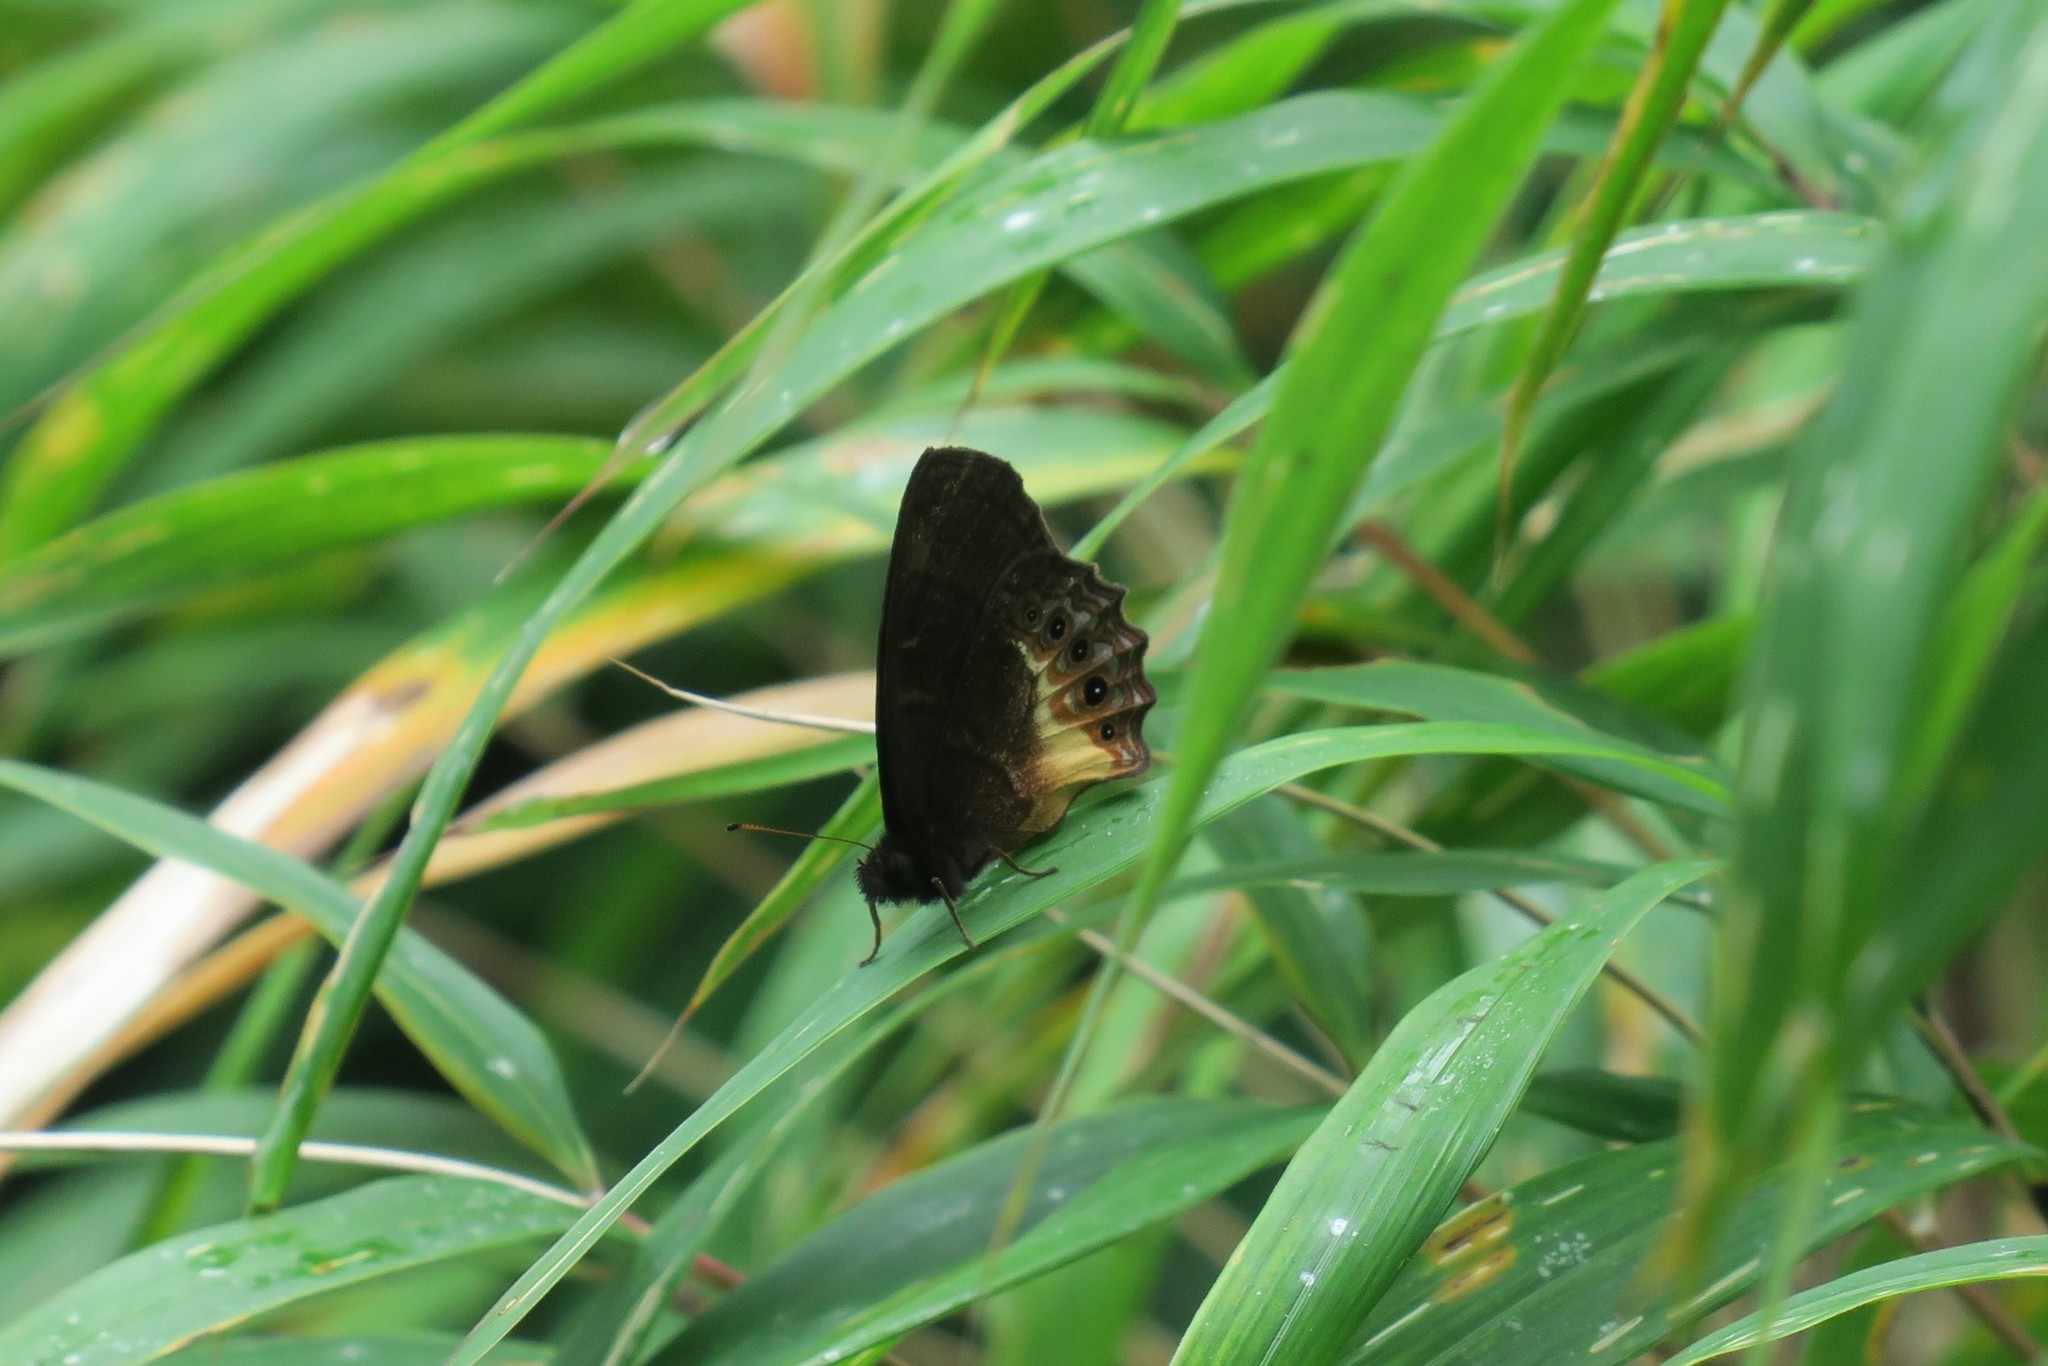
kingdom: Animalia
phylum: Arthropoda
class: Insecta
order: Lepidoptera
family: Nymphalidae
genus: Eretris
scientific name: Eretris porphyria
